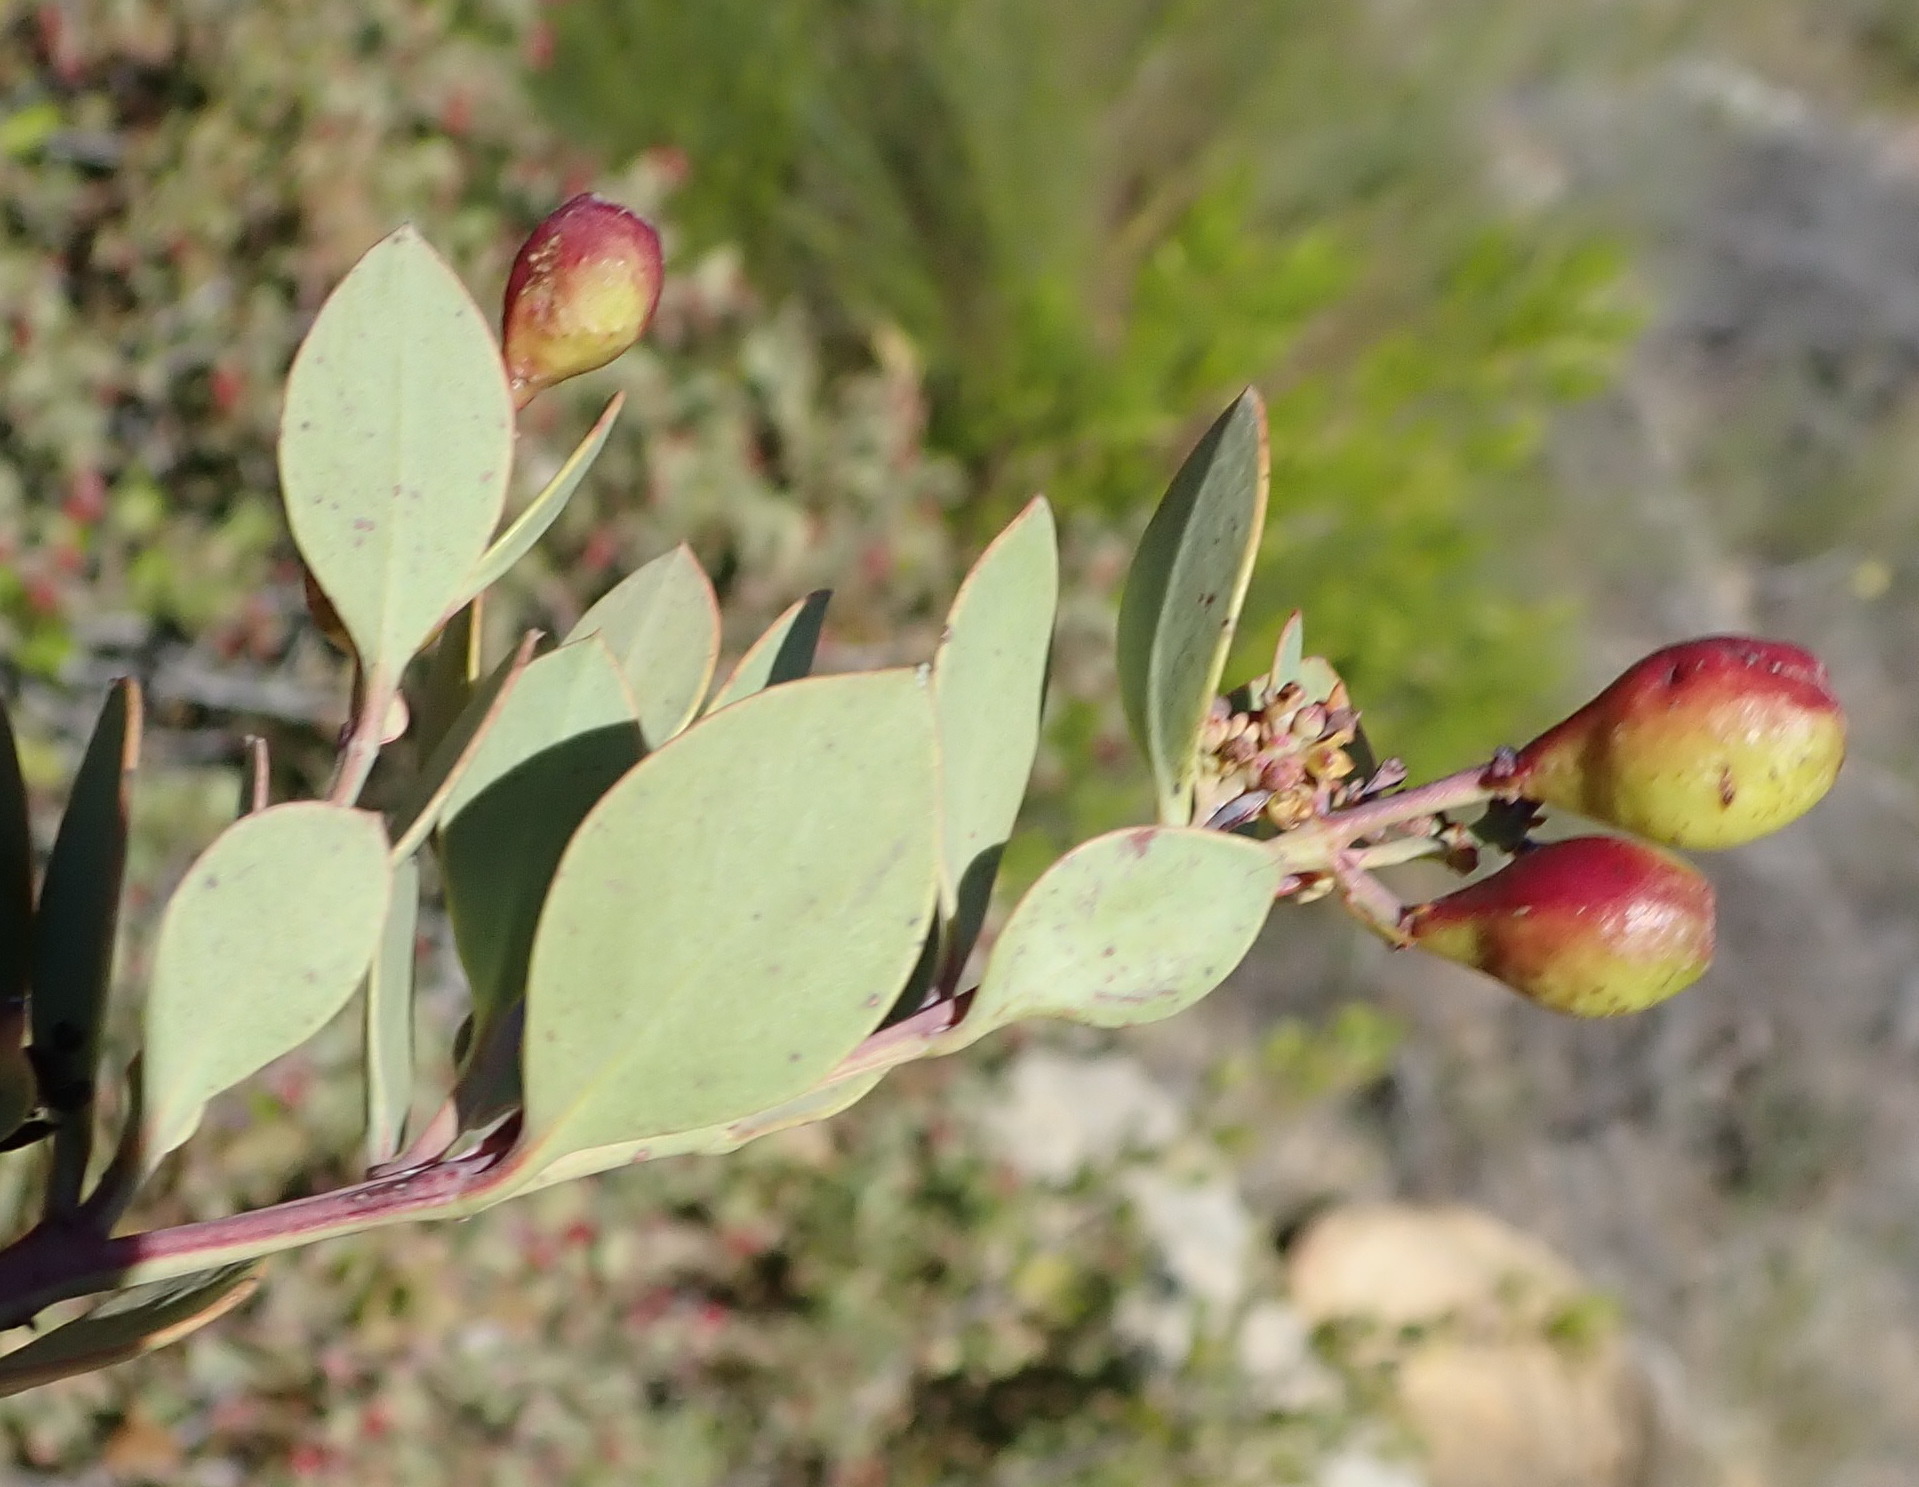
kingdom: Plantae
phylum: Tracheophyta
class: Magnoliopsida
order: Santalales
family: Santalaceae
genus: Osyris
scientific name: Osyris compressa
